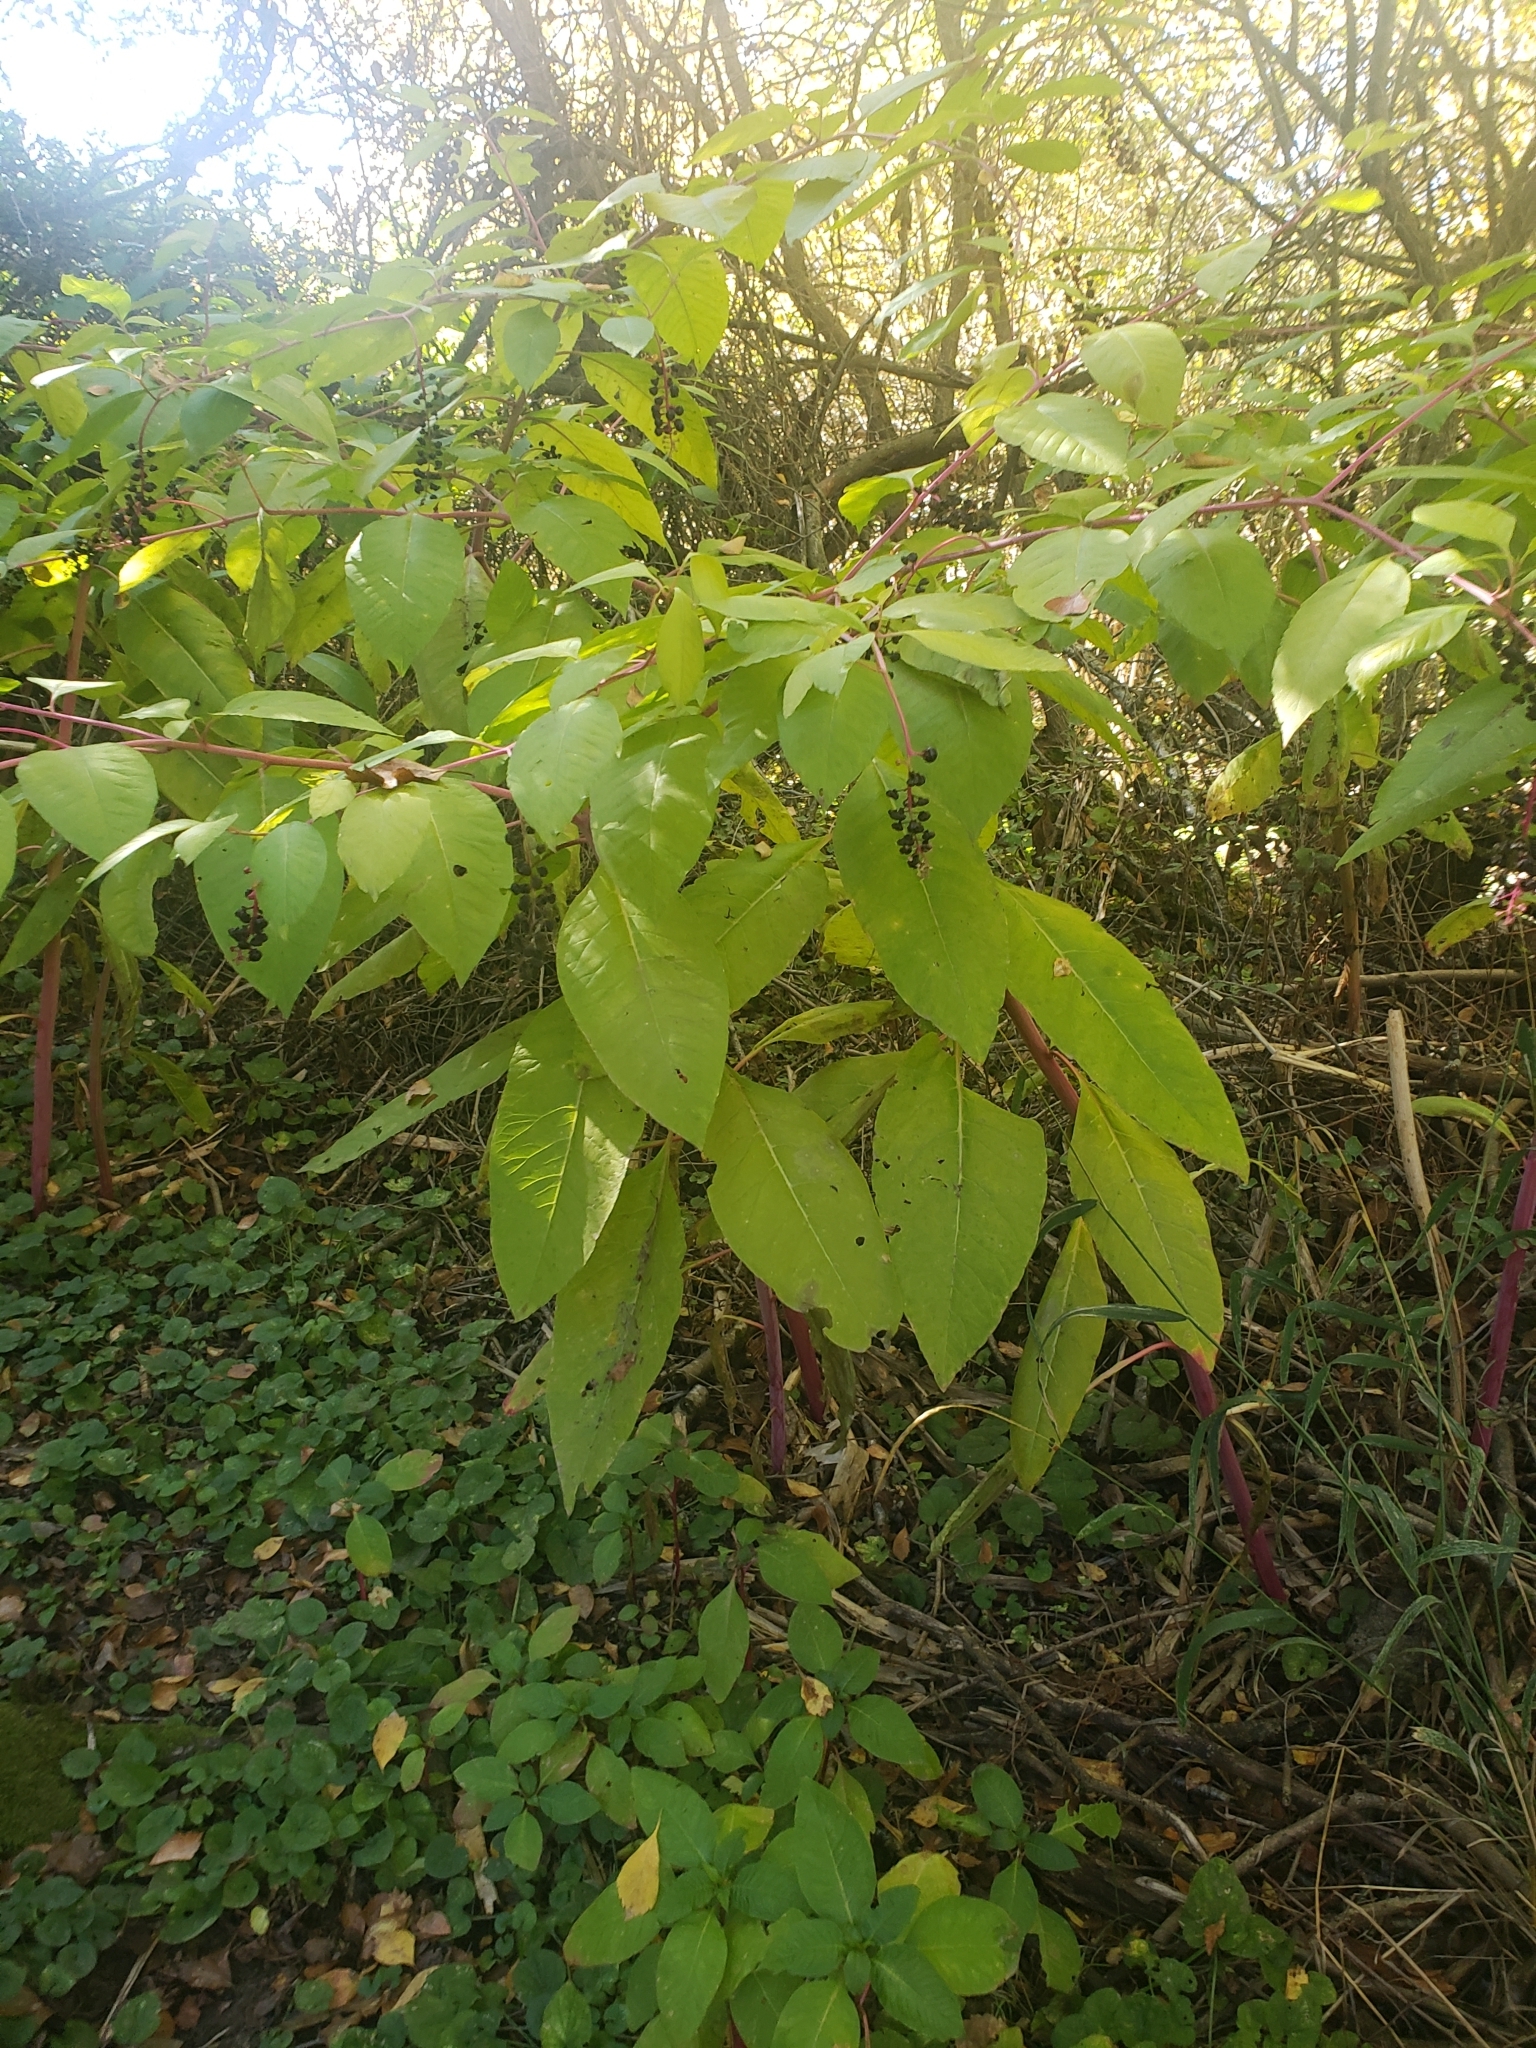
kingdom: Plantae
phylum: Tracheophyta
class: Magnoliopsida
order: Caryophyllales
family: Phytolaccaceae
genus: Phytolacca
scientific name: Phytolacca americana
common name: American pokeweed
